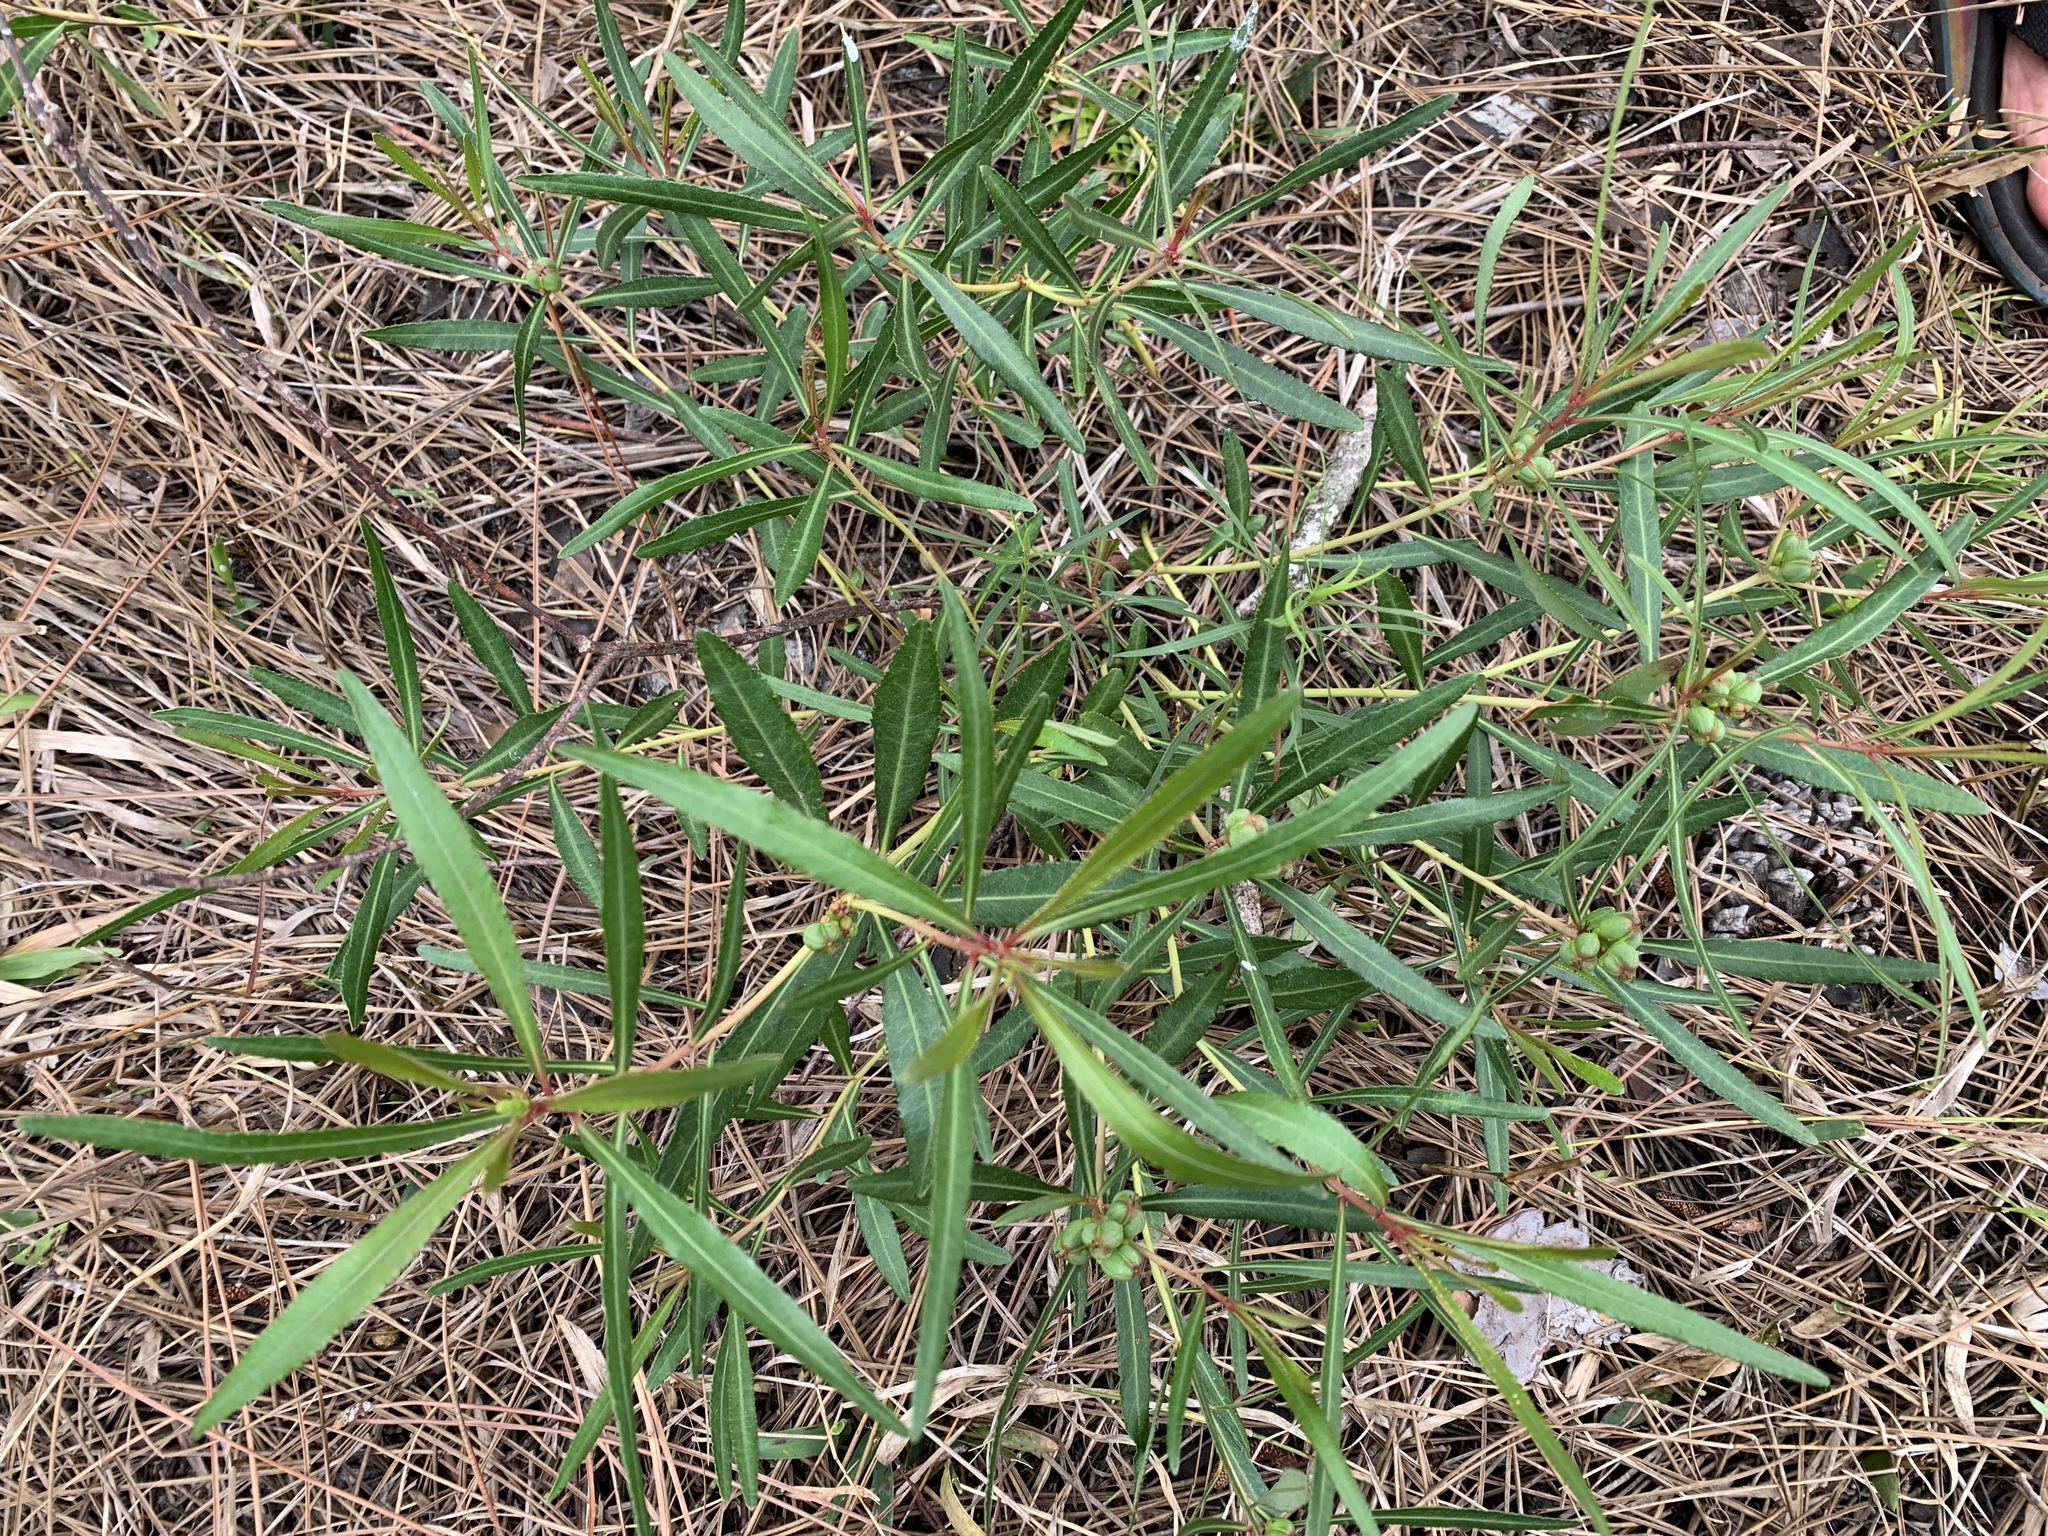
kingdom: Plantae
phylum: Tracheophyta
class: Magnoliopsida
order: Malpighiales
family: Euphorbiaceae
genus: Stillingia
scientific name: Stillingia sylvatica
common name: Queen's-delight
